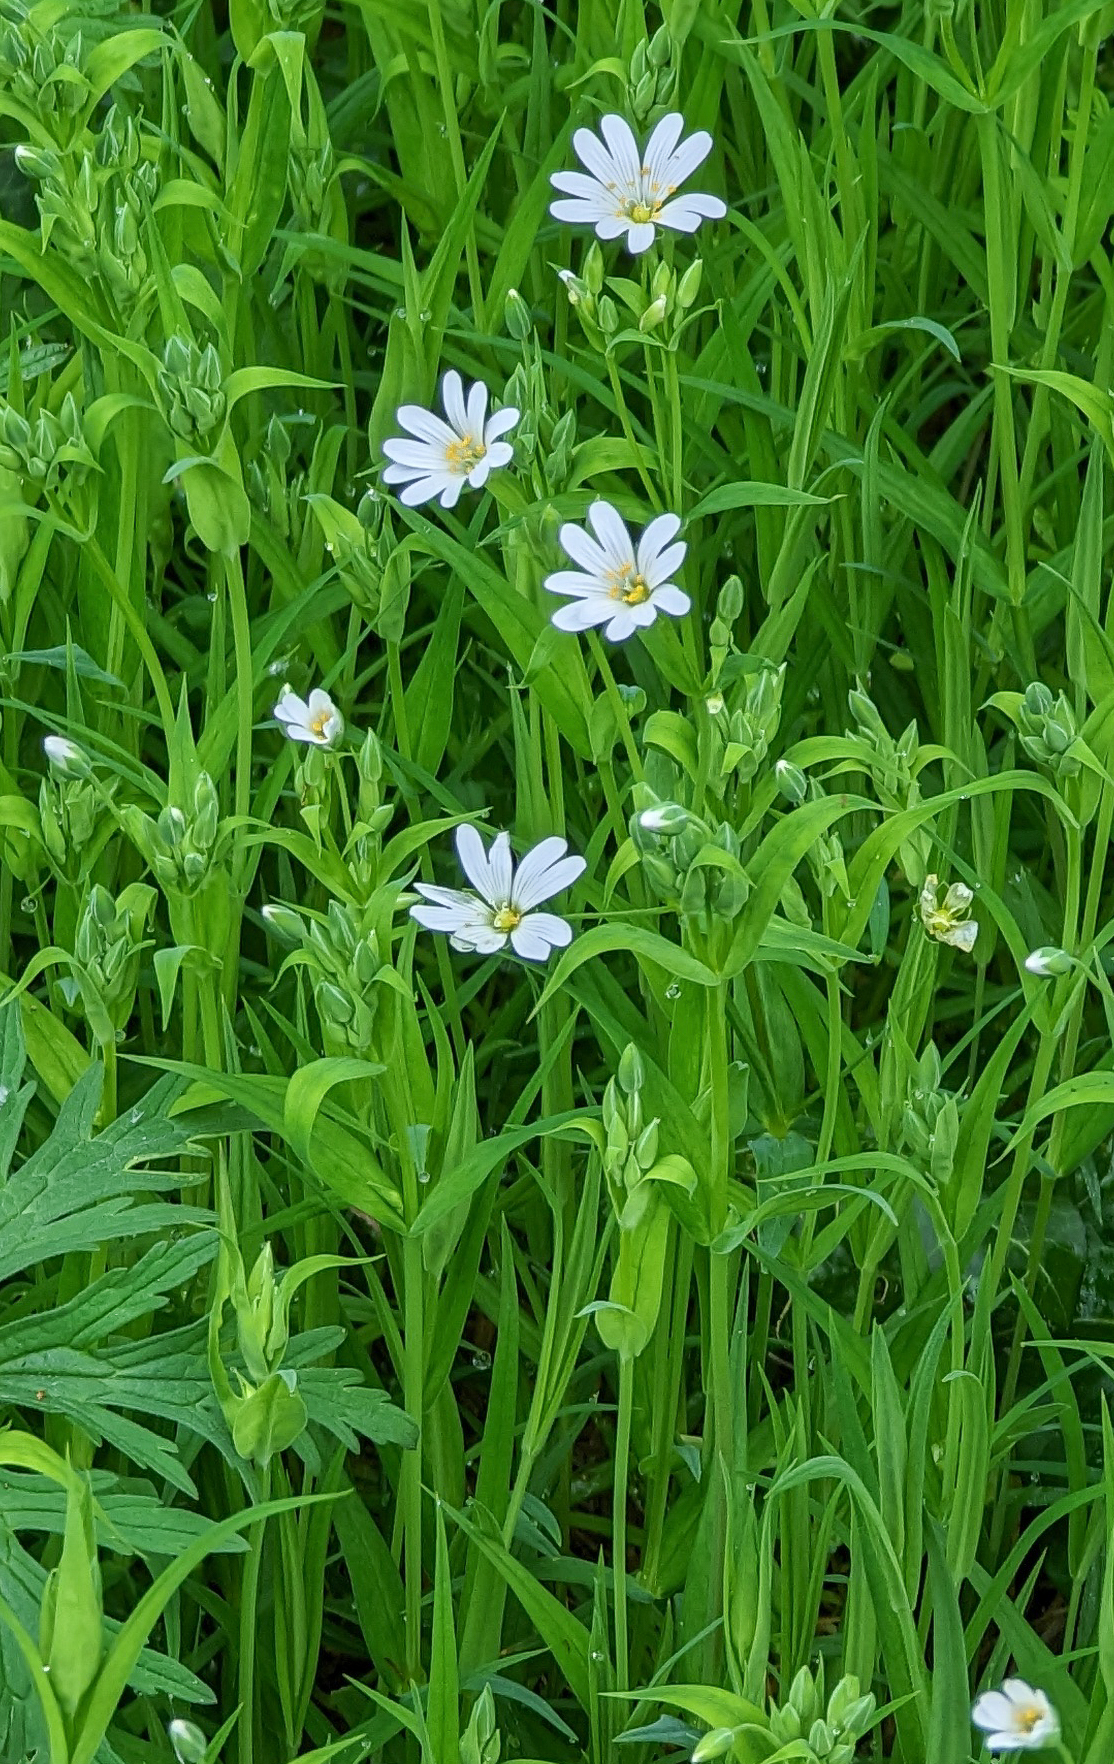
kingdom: Plantae
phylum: Tracheophyta
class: Magnoliopsida
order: Caryophyllales
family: Caryophyllaceae
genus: Rabelera
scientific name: Rabelera holostea
